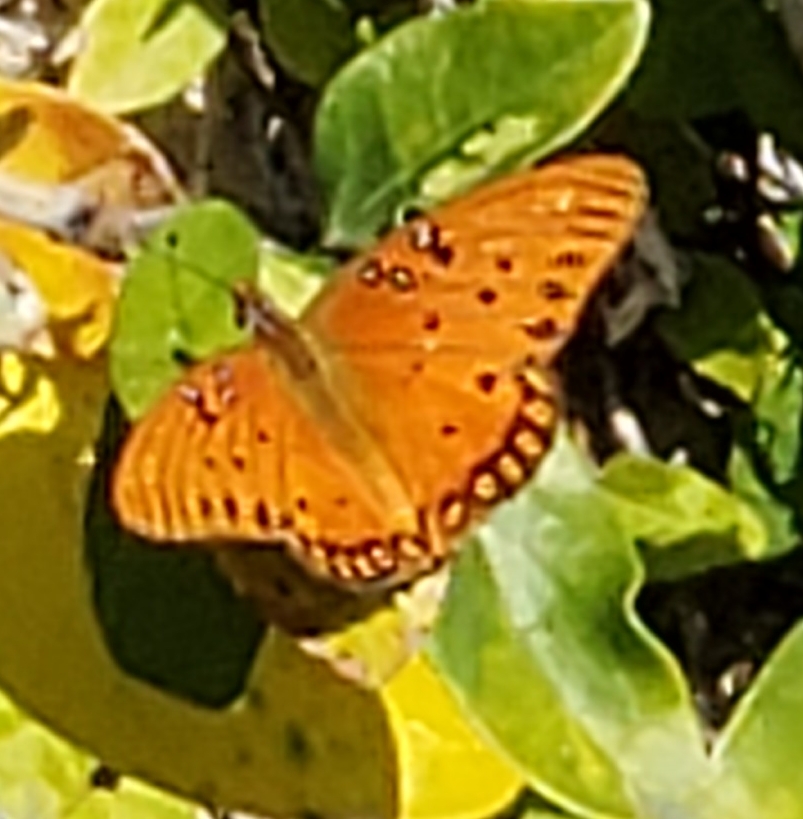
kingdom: Animalia
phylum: Arthropoda
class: Insecta
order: Lepidoptera
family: Nymphalidae
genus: Dione
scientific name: Dione vanillae
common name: Gulf fritillary
